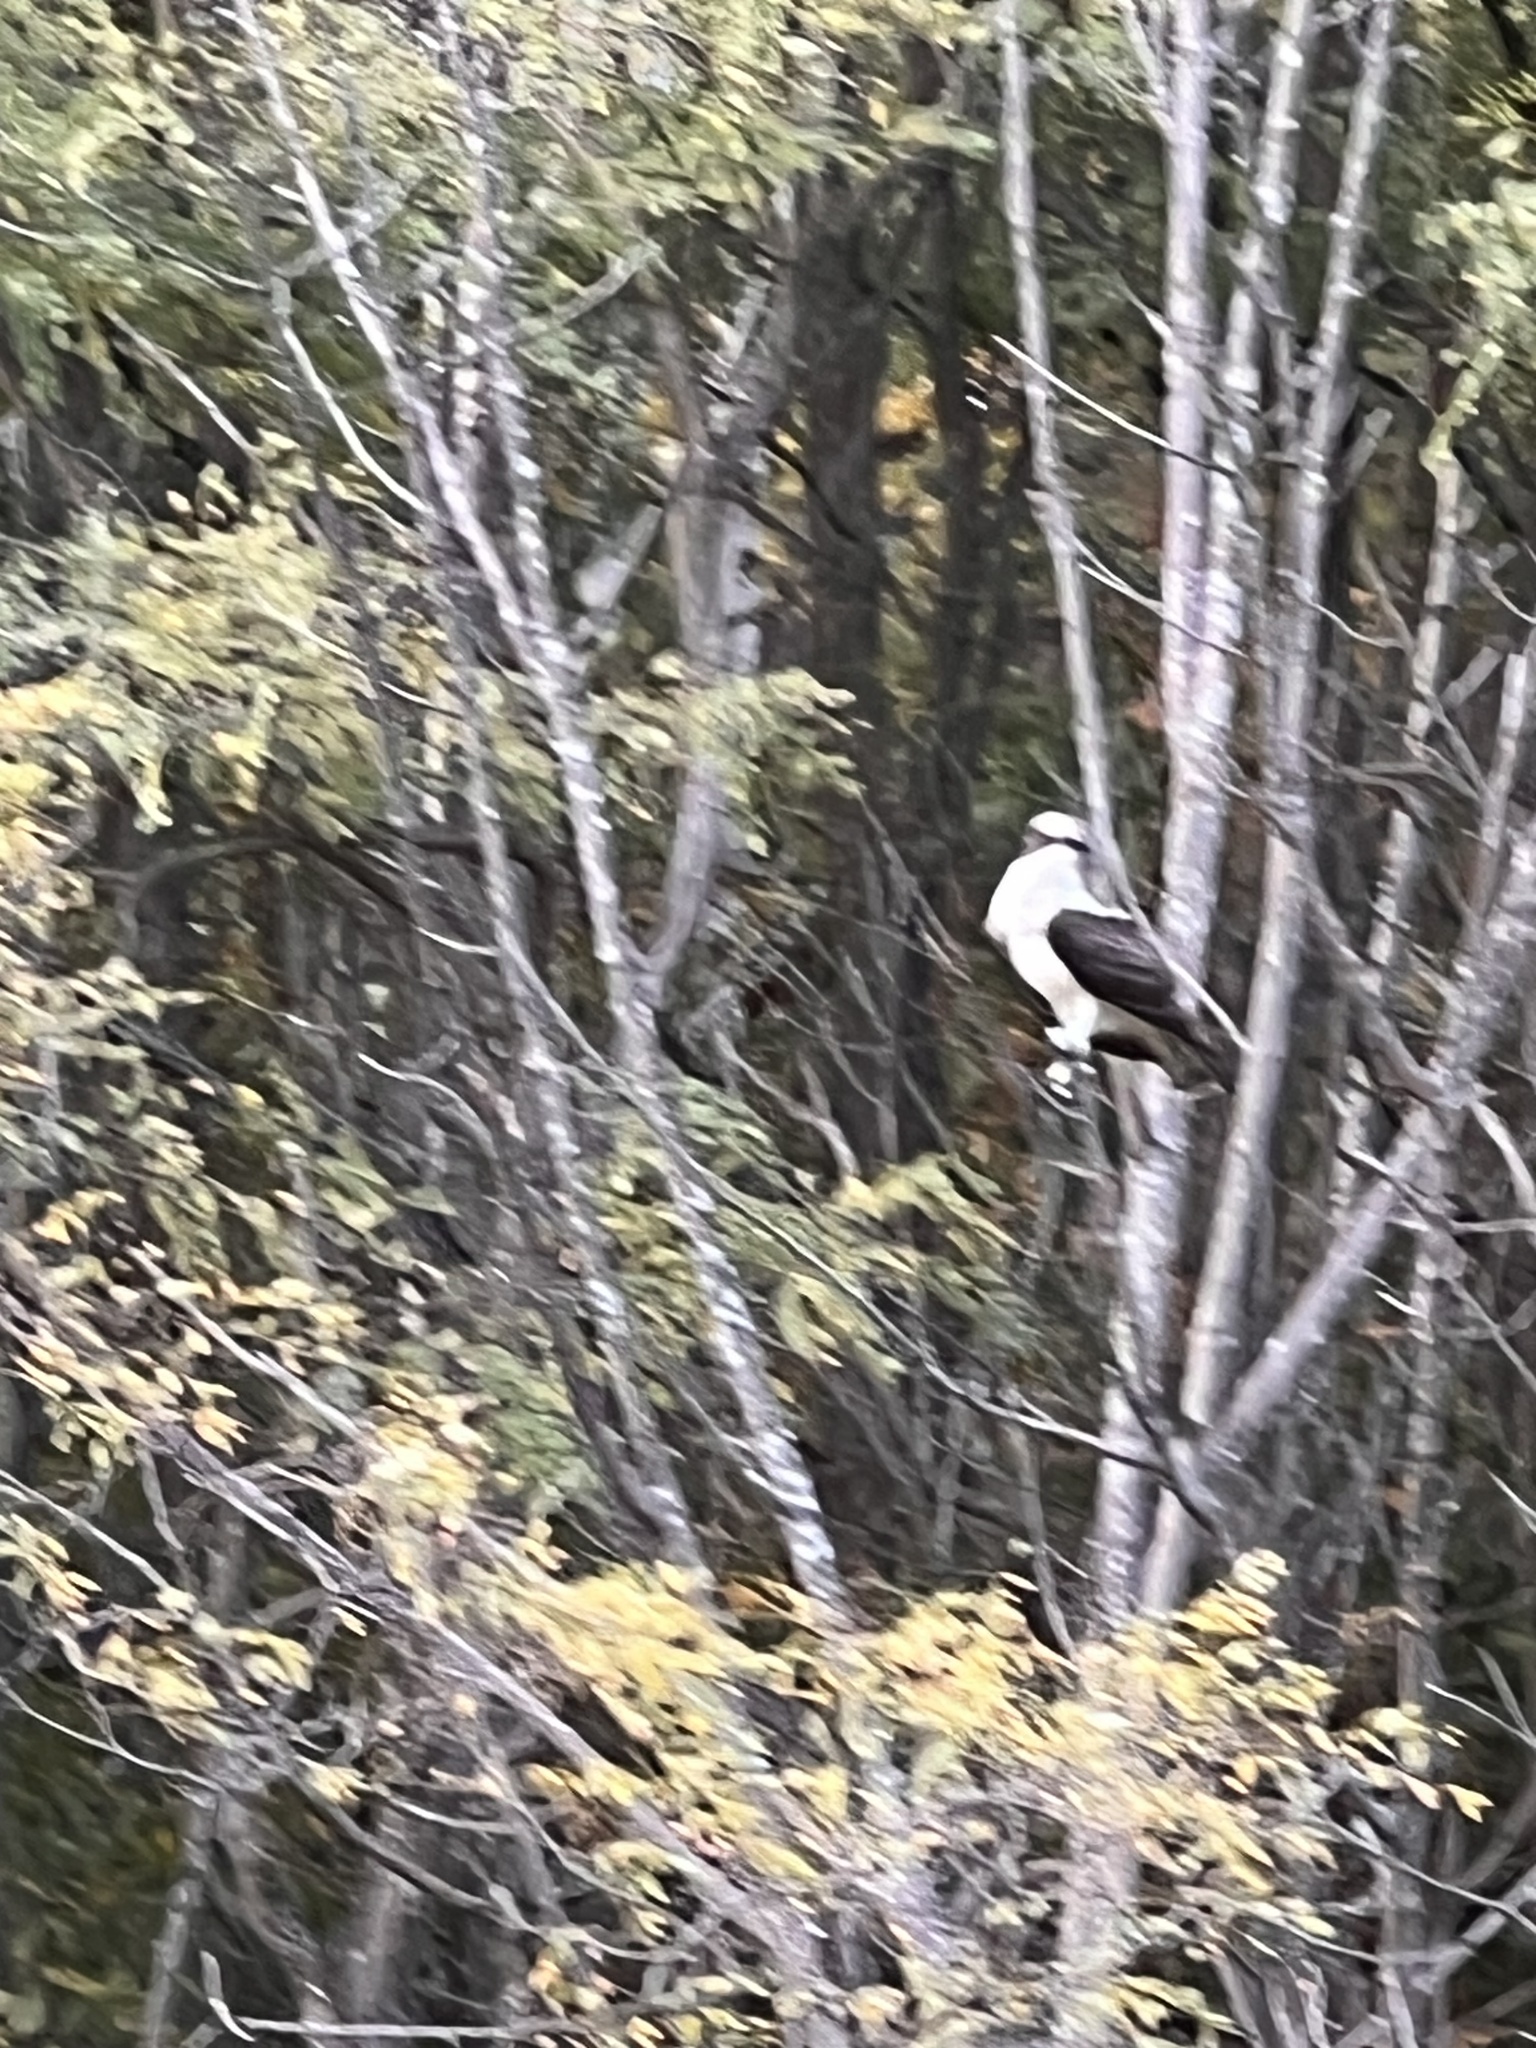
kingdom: Animalia
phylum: Chordata
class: Aves
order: Accipitriformes
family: Pandionidae
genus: Pandion
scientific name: Pandion haliaetus
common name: Osprey
